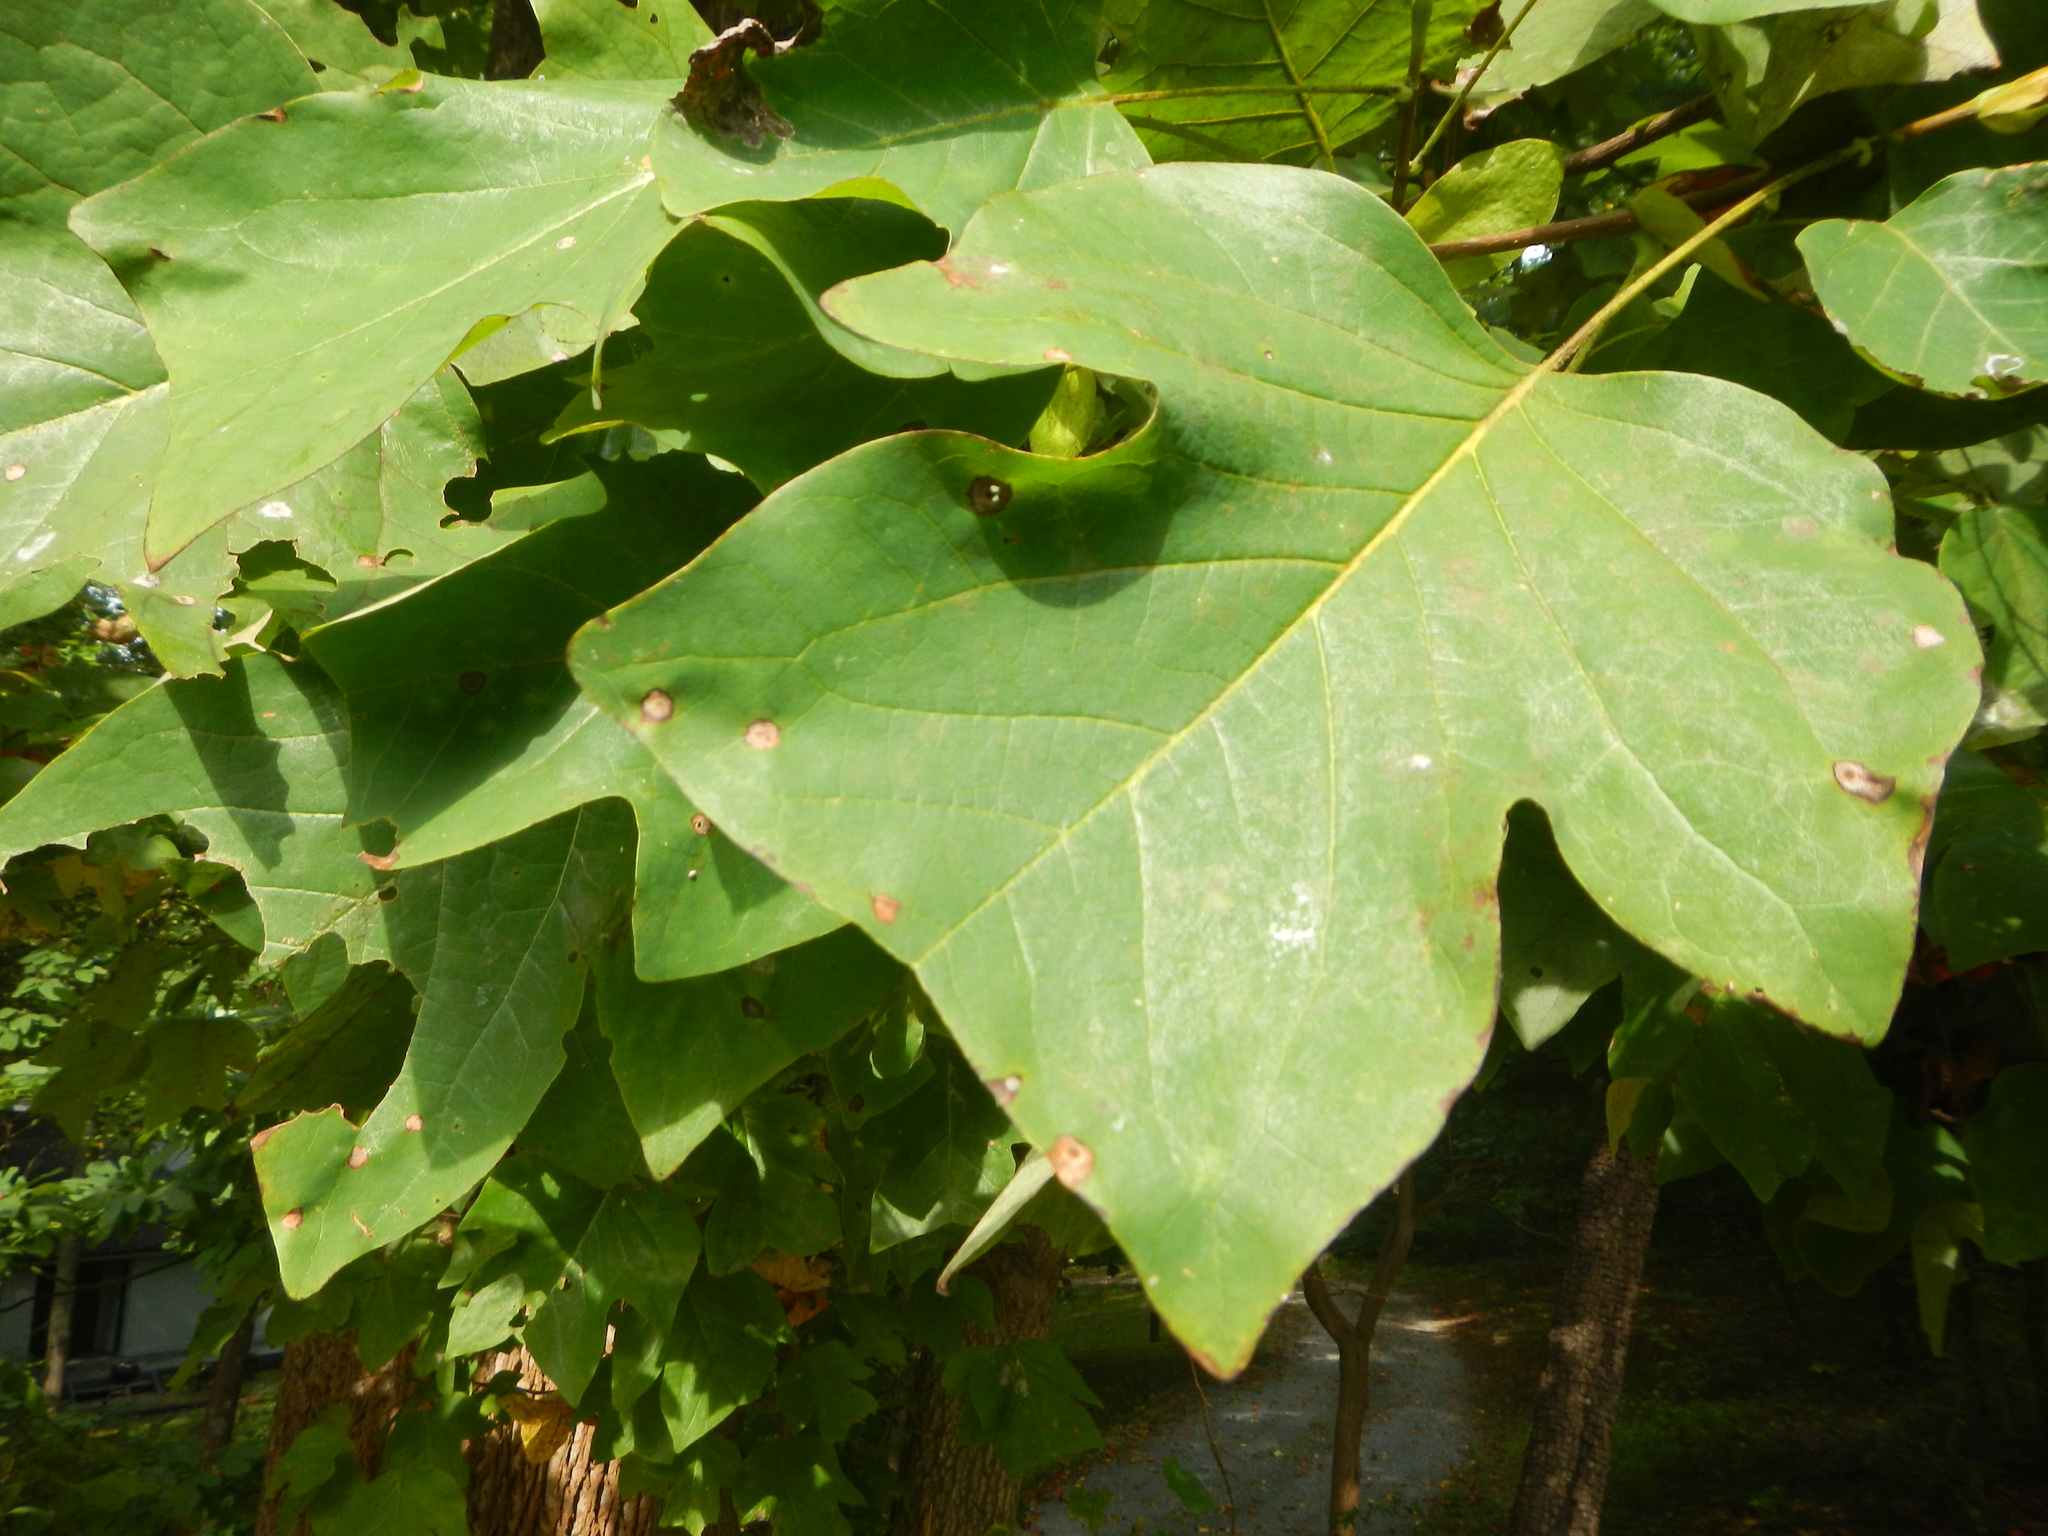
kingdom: Plantae
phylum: Tracheophyta
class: Magnoliopsida
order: Magnoliales
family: Magnoliaceae
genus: Liriodendron
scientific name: Liriodendron tulipifera
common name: Tulip tree
